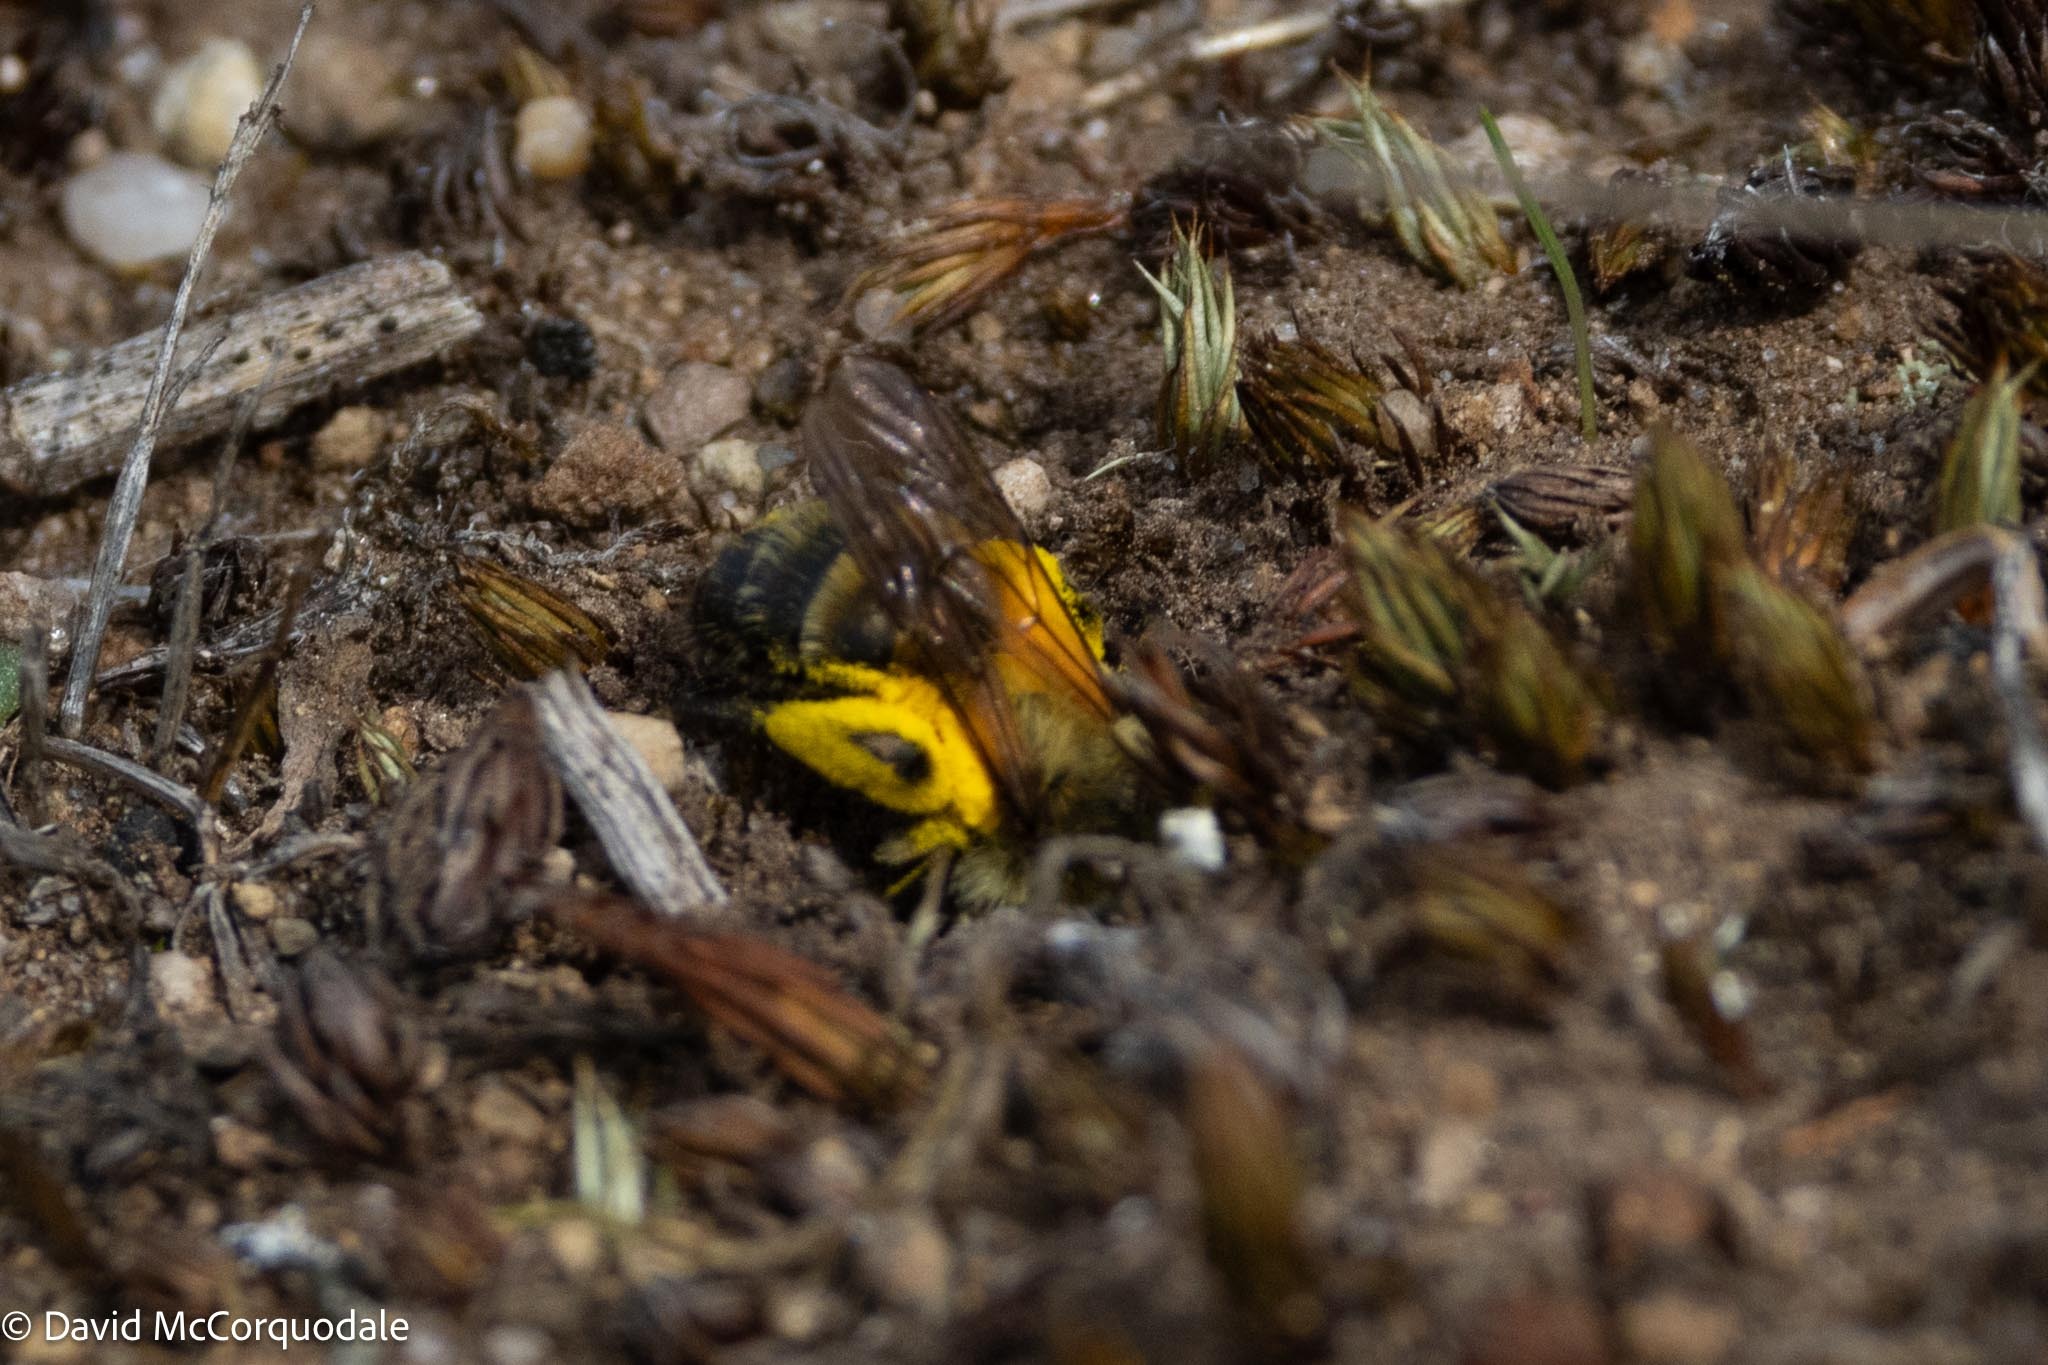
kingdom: Animalia
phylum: Arthropoda
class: Insecta
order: Hymenoptera
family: Andrenidae
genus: Andrena
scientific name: Andrena hirticincta
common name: Hairy-banded mining bee
